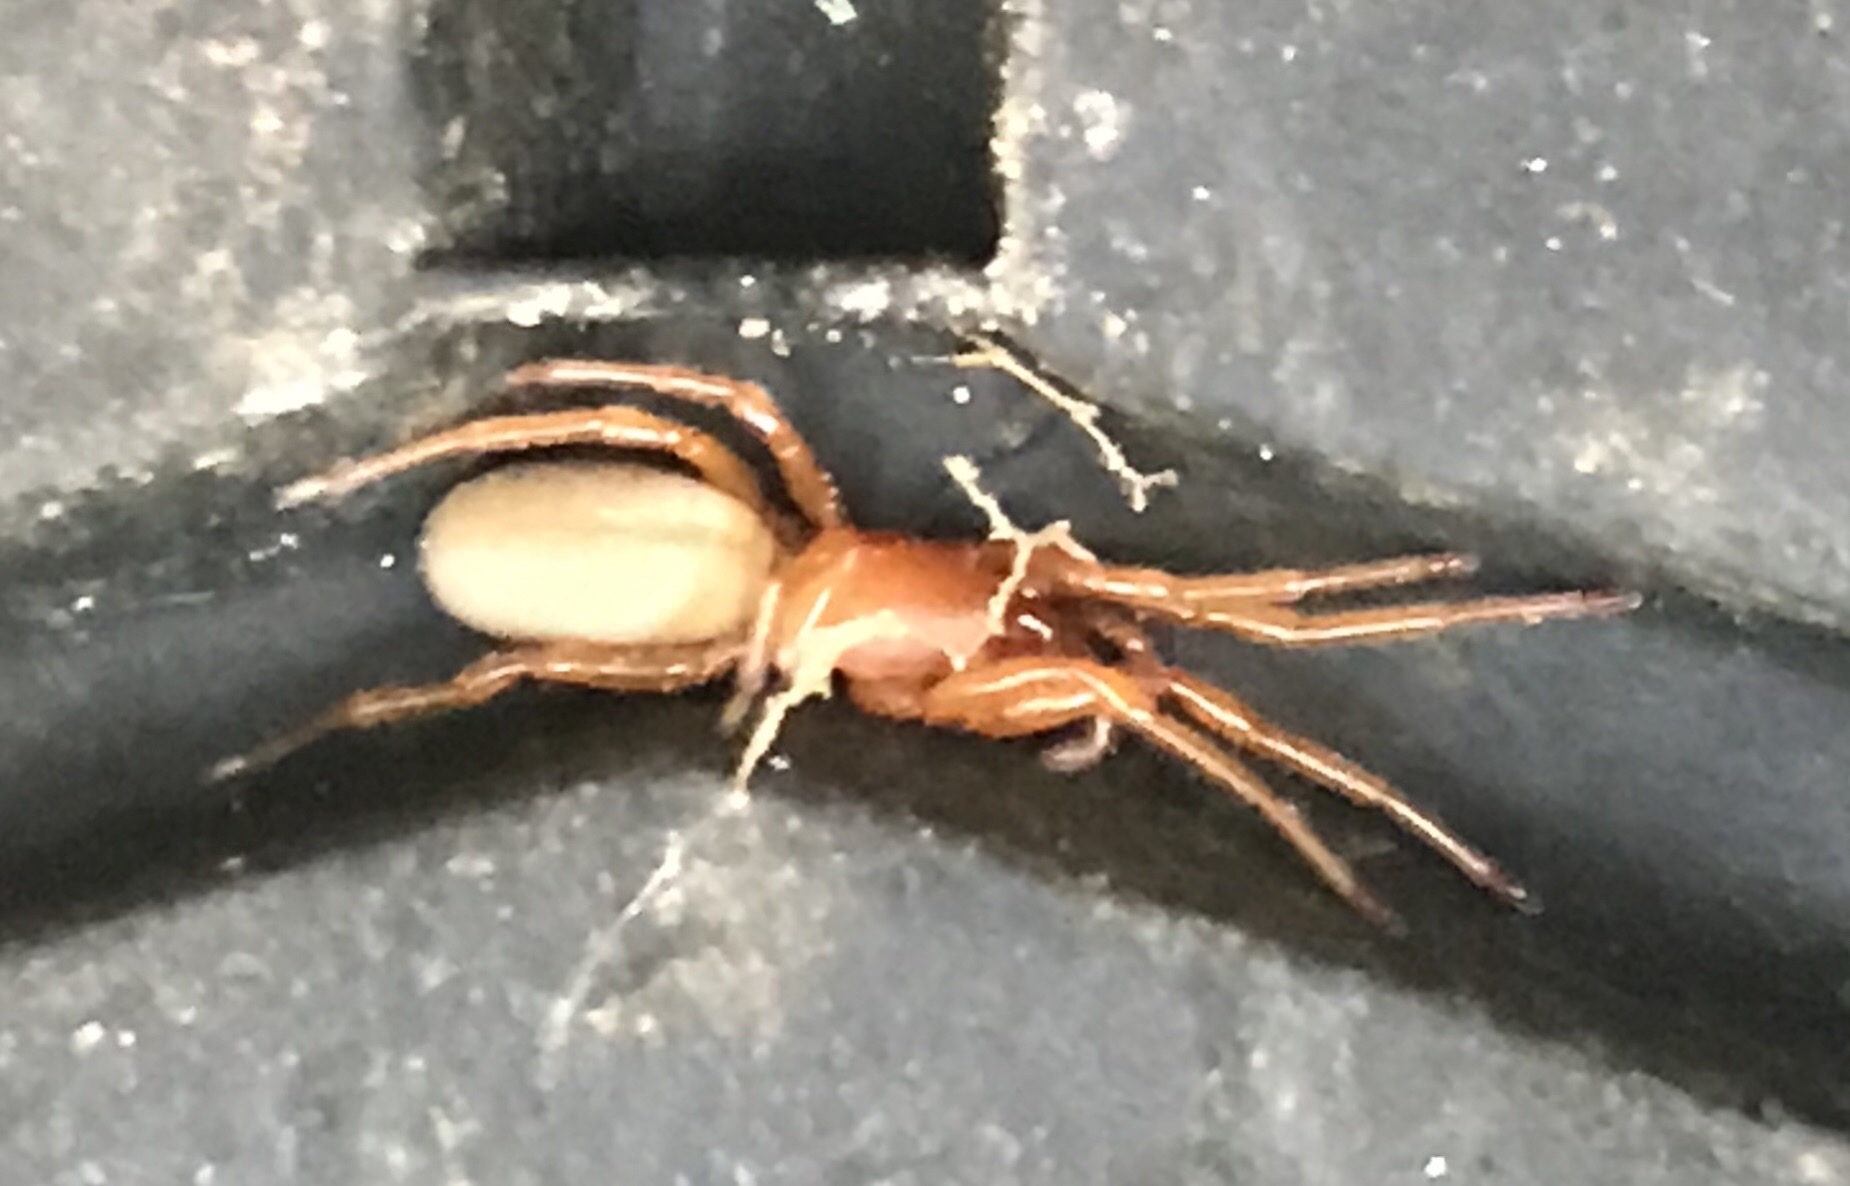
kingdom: Animalia
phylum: Arthropoda
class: Arachnida
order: Araneae
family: Dysderidae
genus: Dysdera
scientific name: Dysdera crocata
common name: Woodlouse spider
